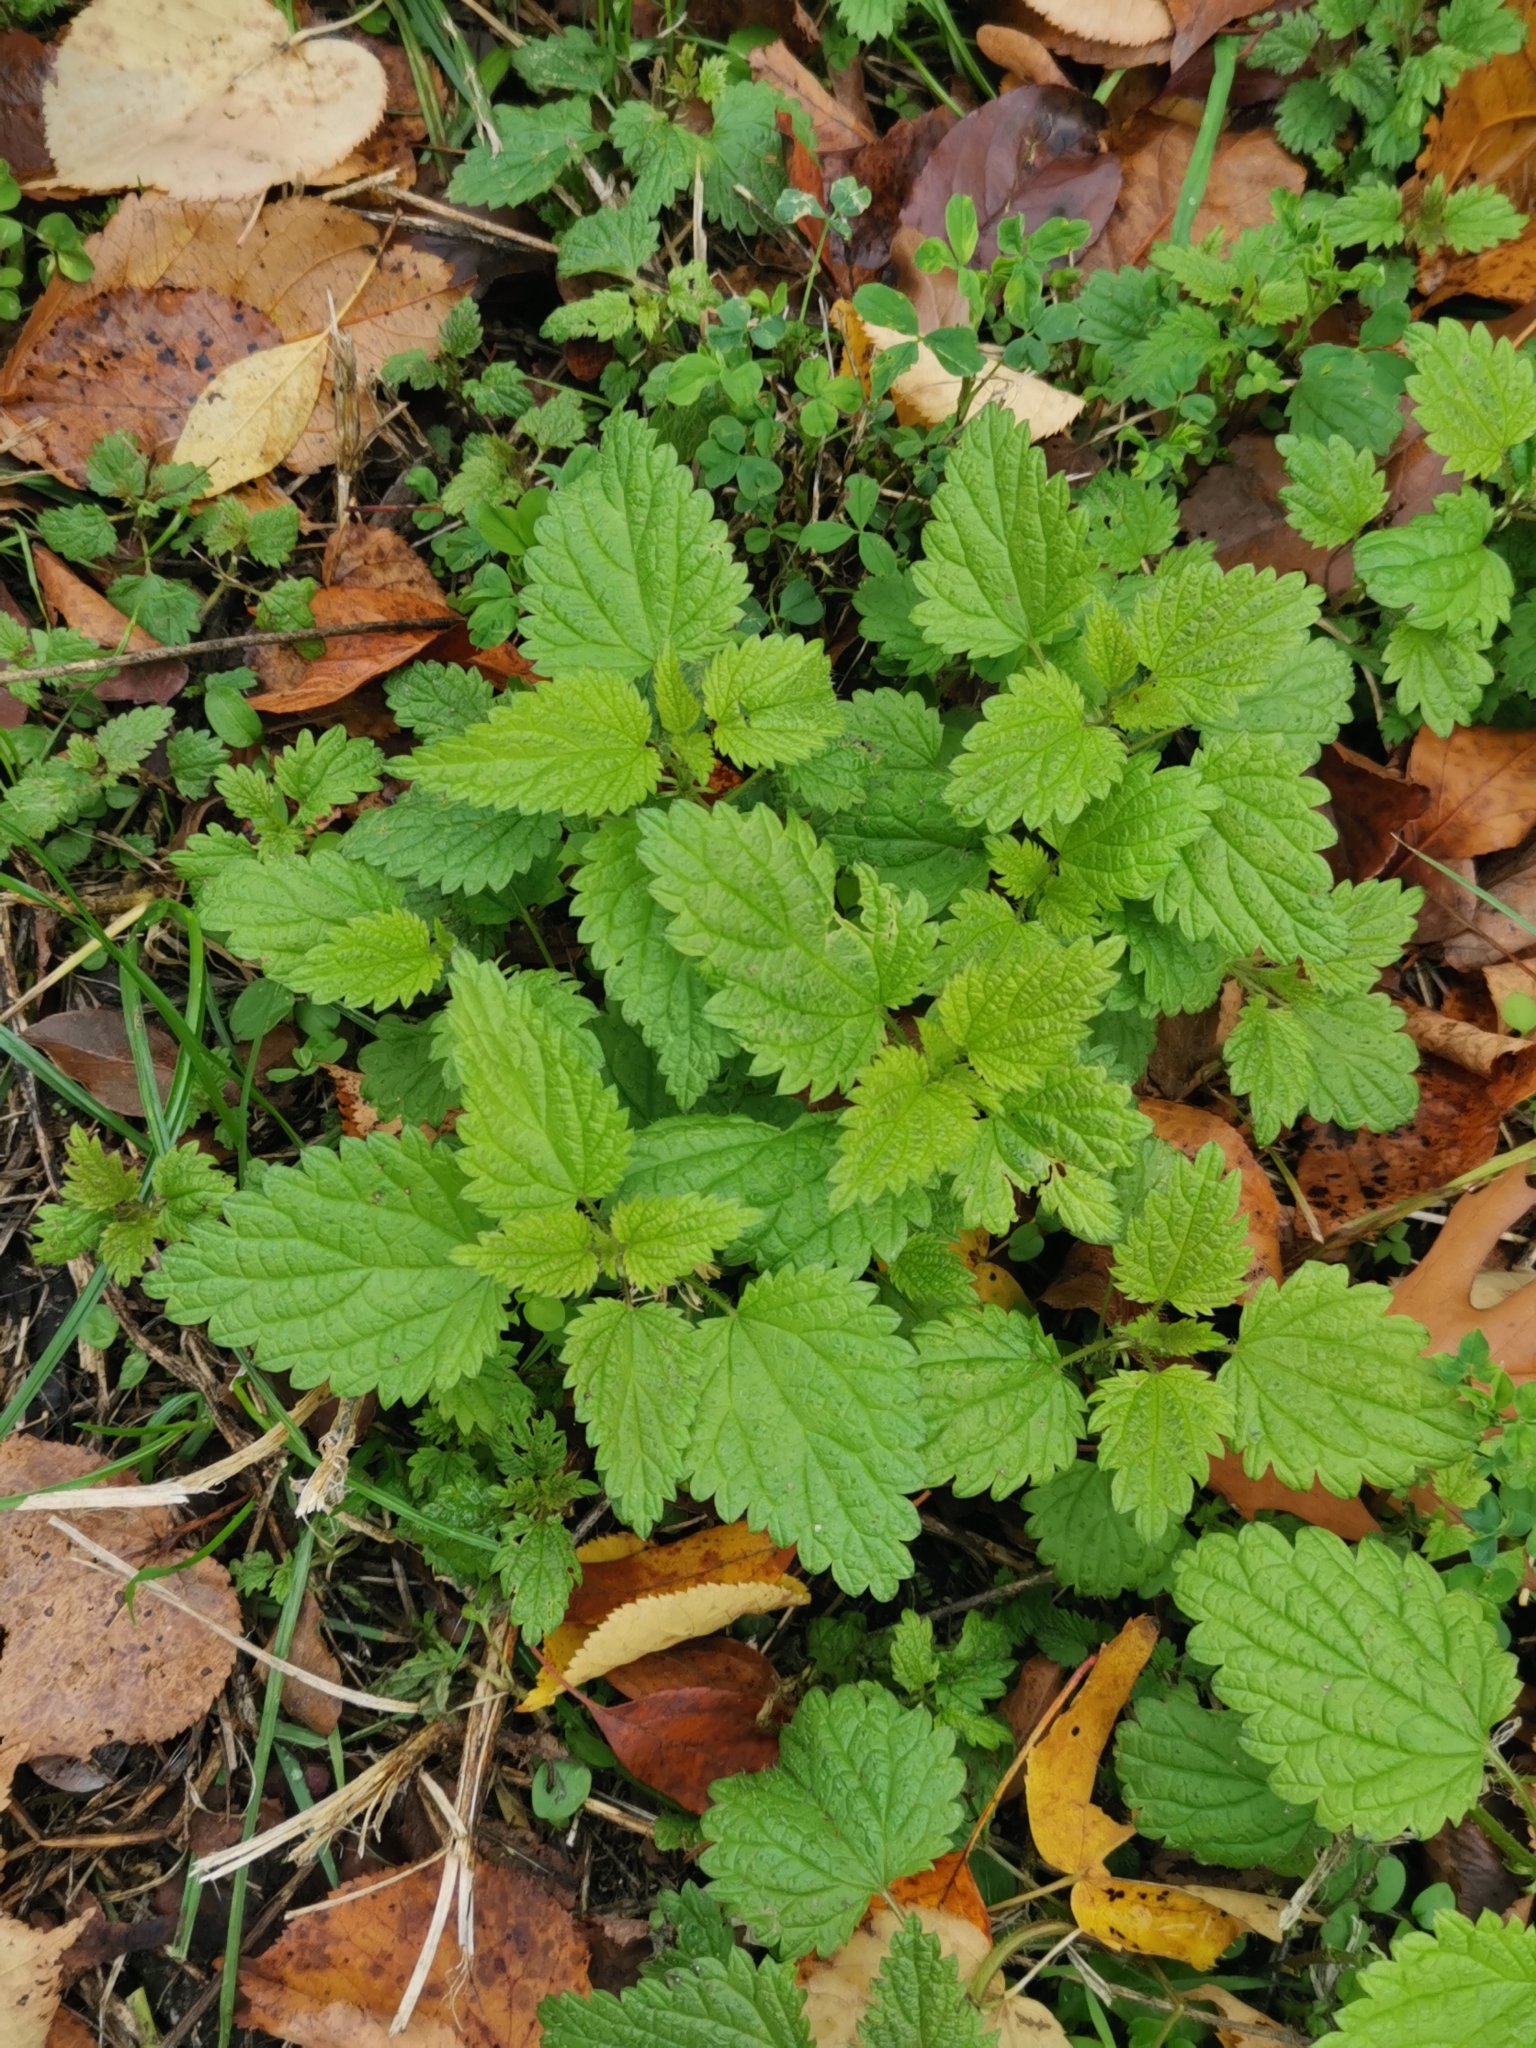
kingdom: Plantae
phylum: Tracheophyta
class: Magnoliopsida
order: Rosales
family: Urticaceae
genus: Urtica
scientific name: Urtica dioica
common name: Common nettle
